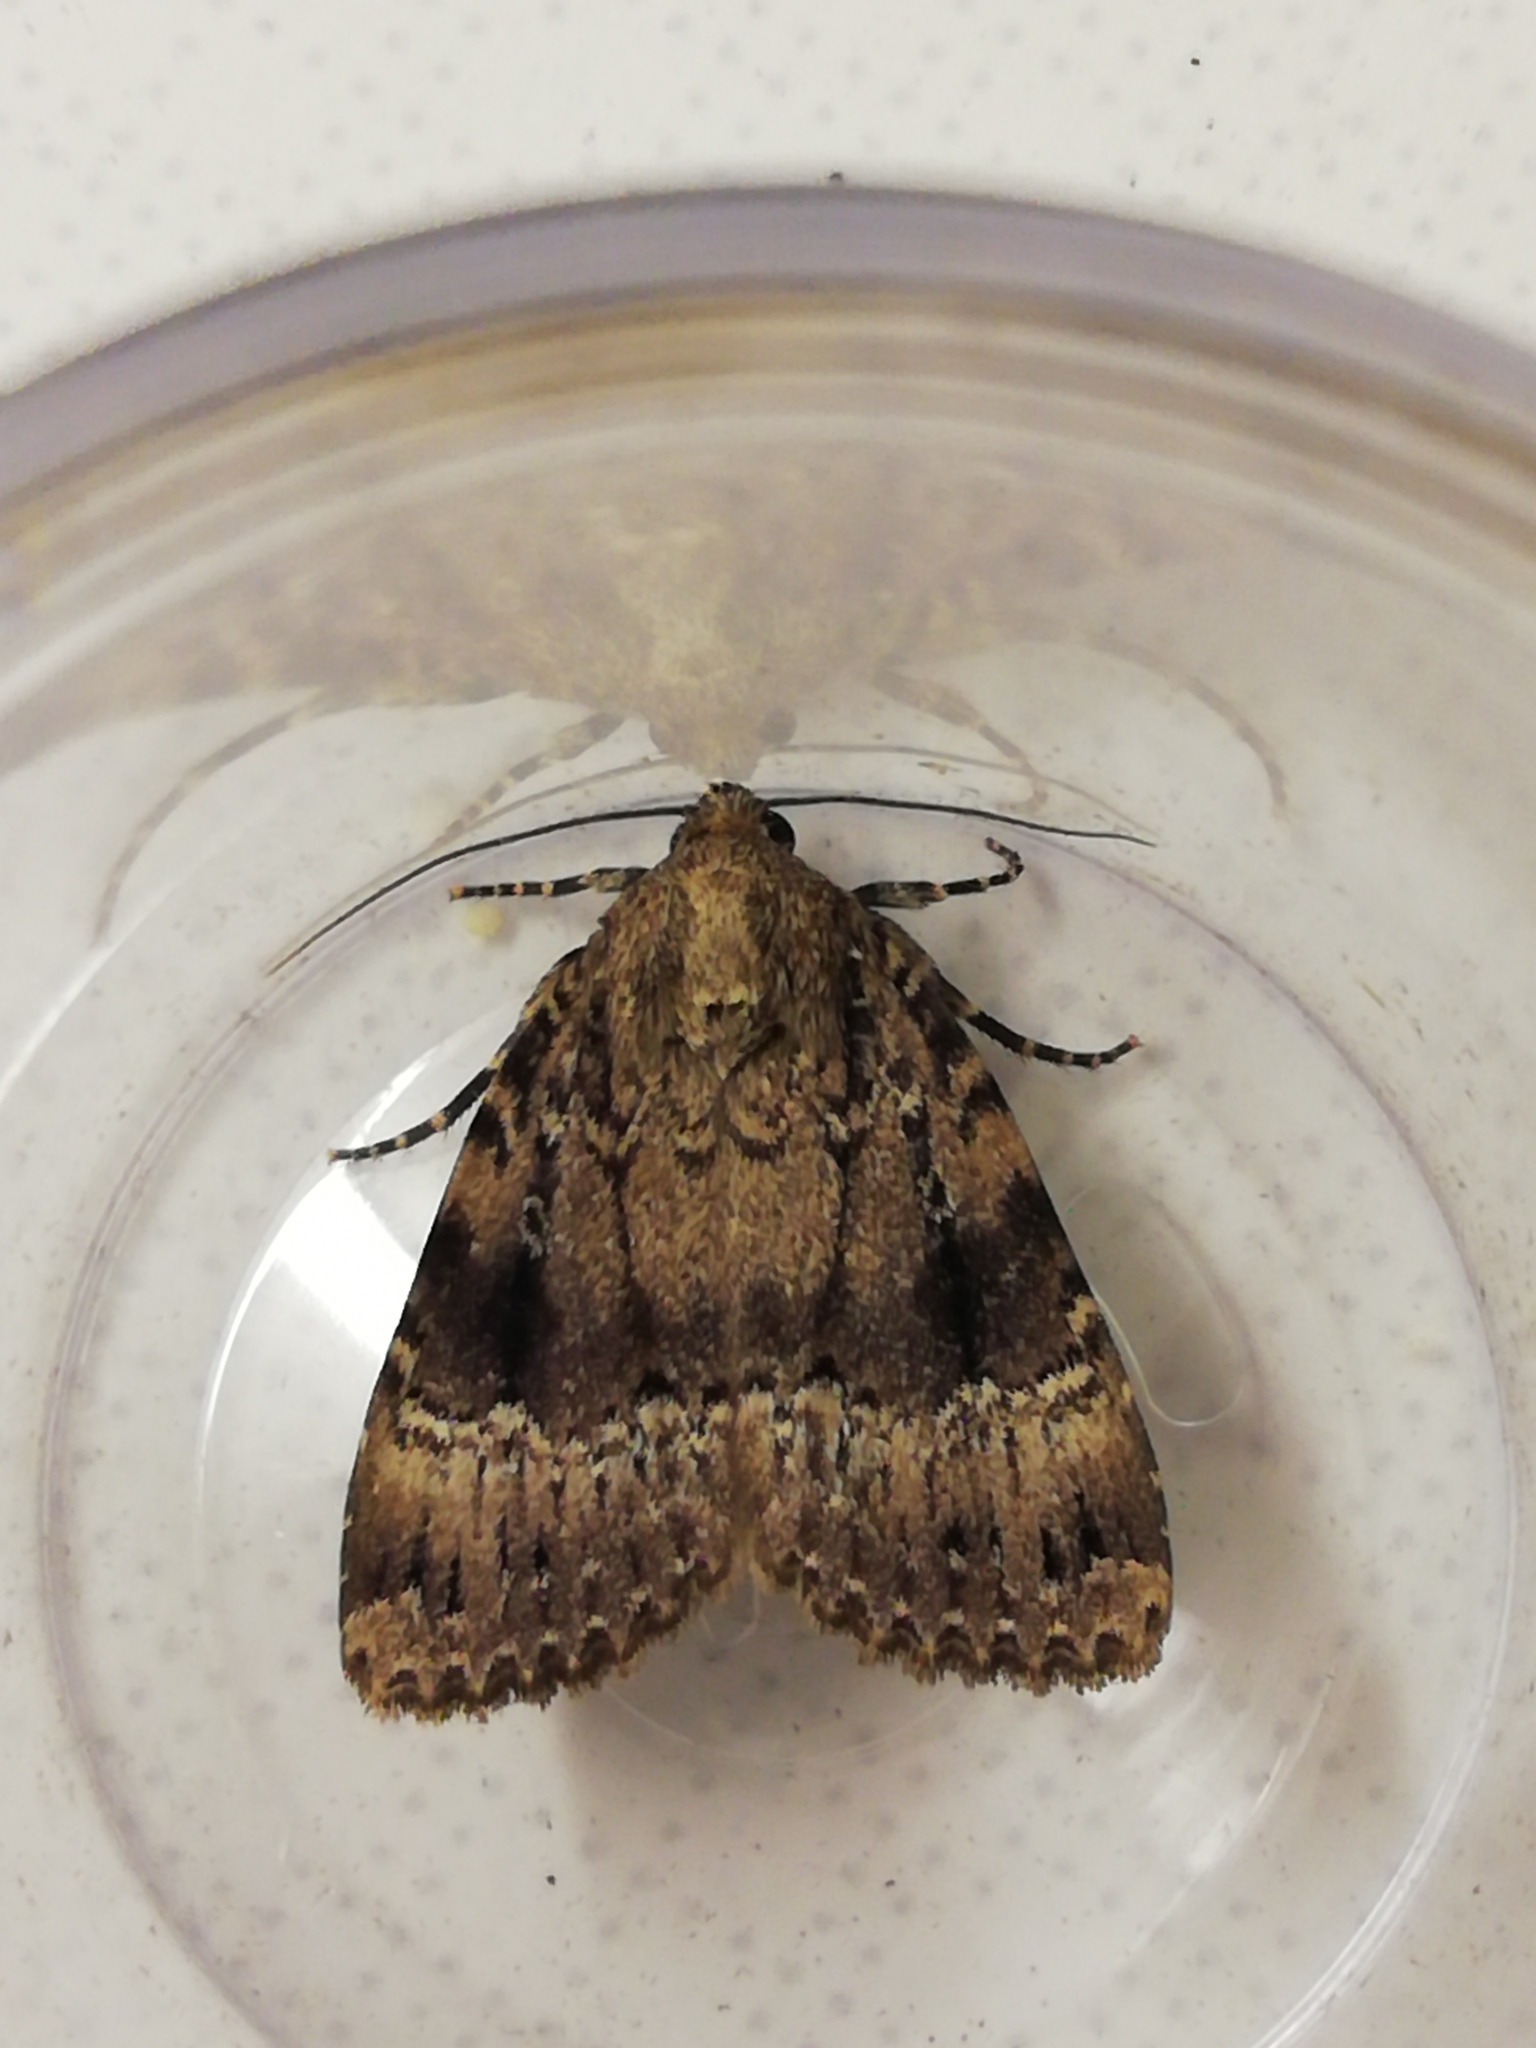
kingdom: Animalia
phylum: Arthropoda
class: Insecta
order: Lepidoptera
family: Noctuidae
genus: Amphipyra
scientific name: Amphipyra pyramidea
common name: Copper underwing
